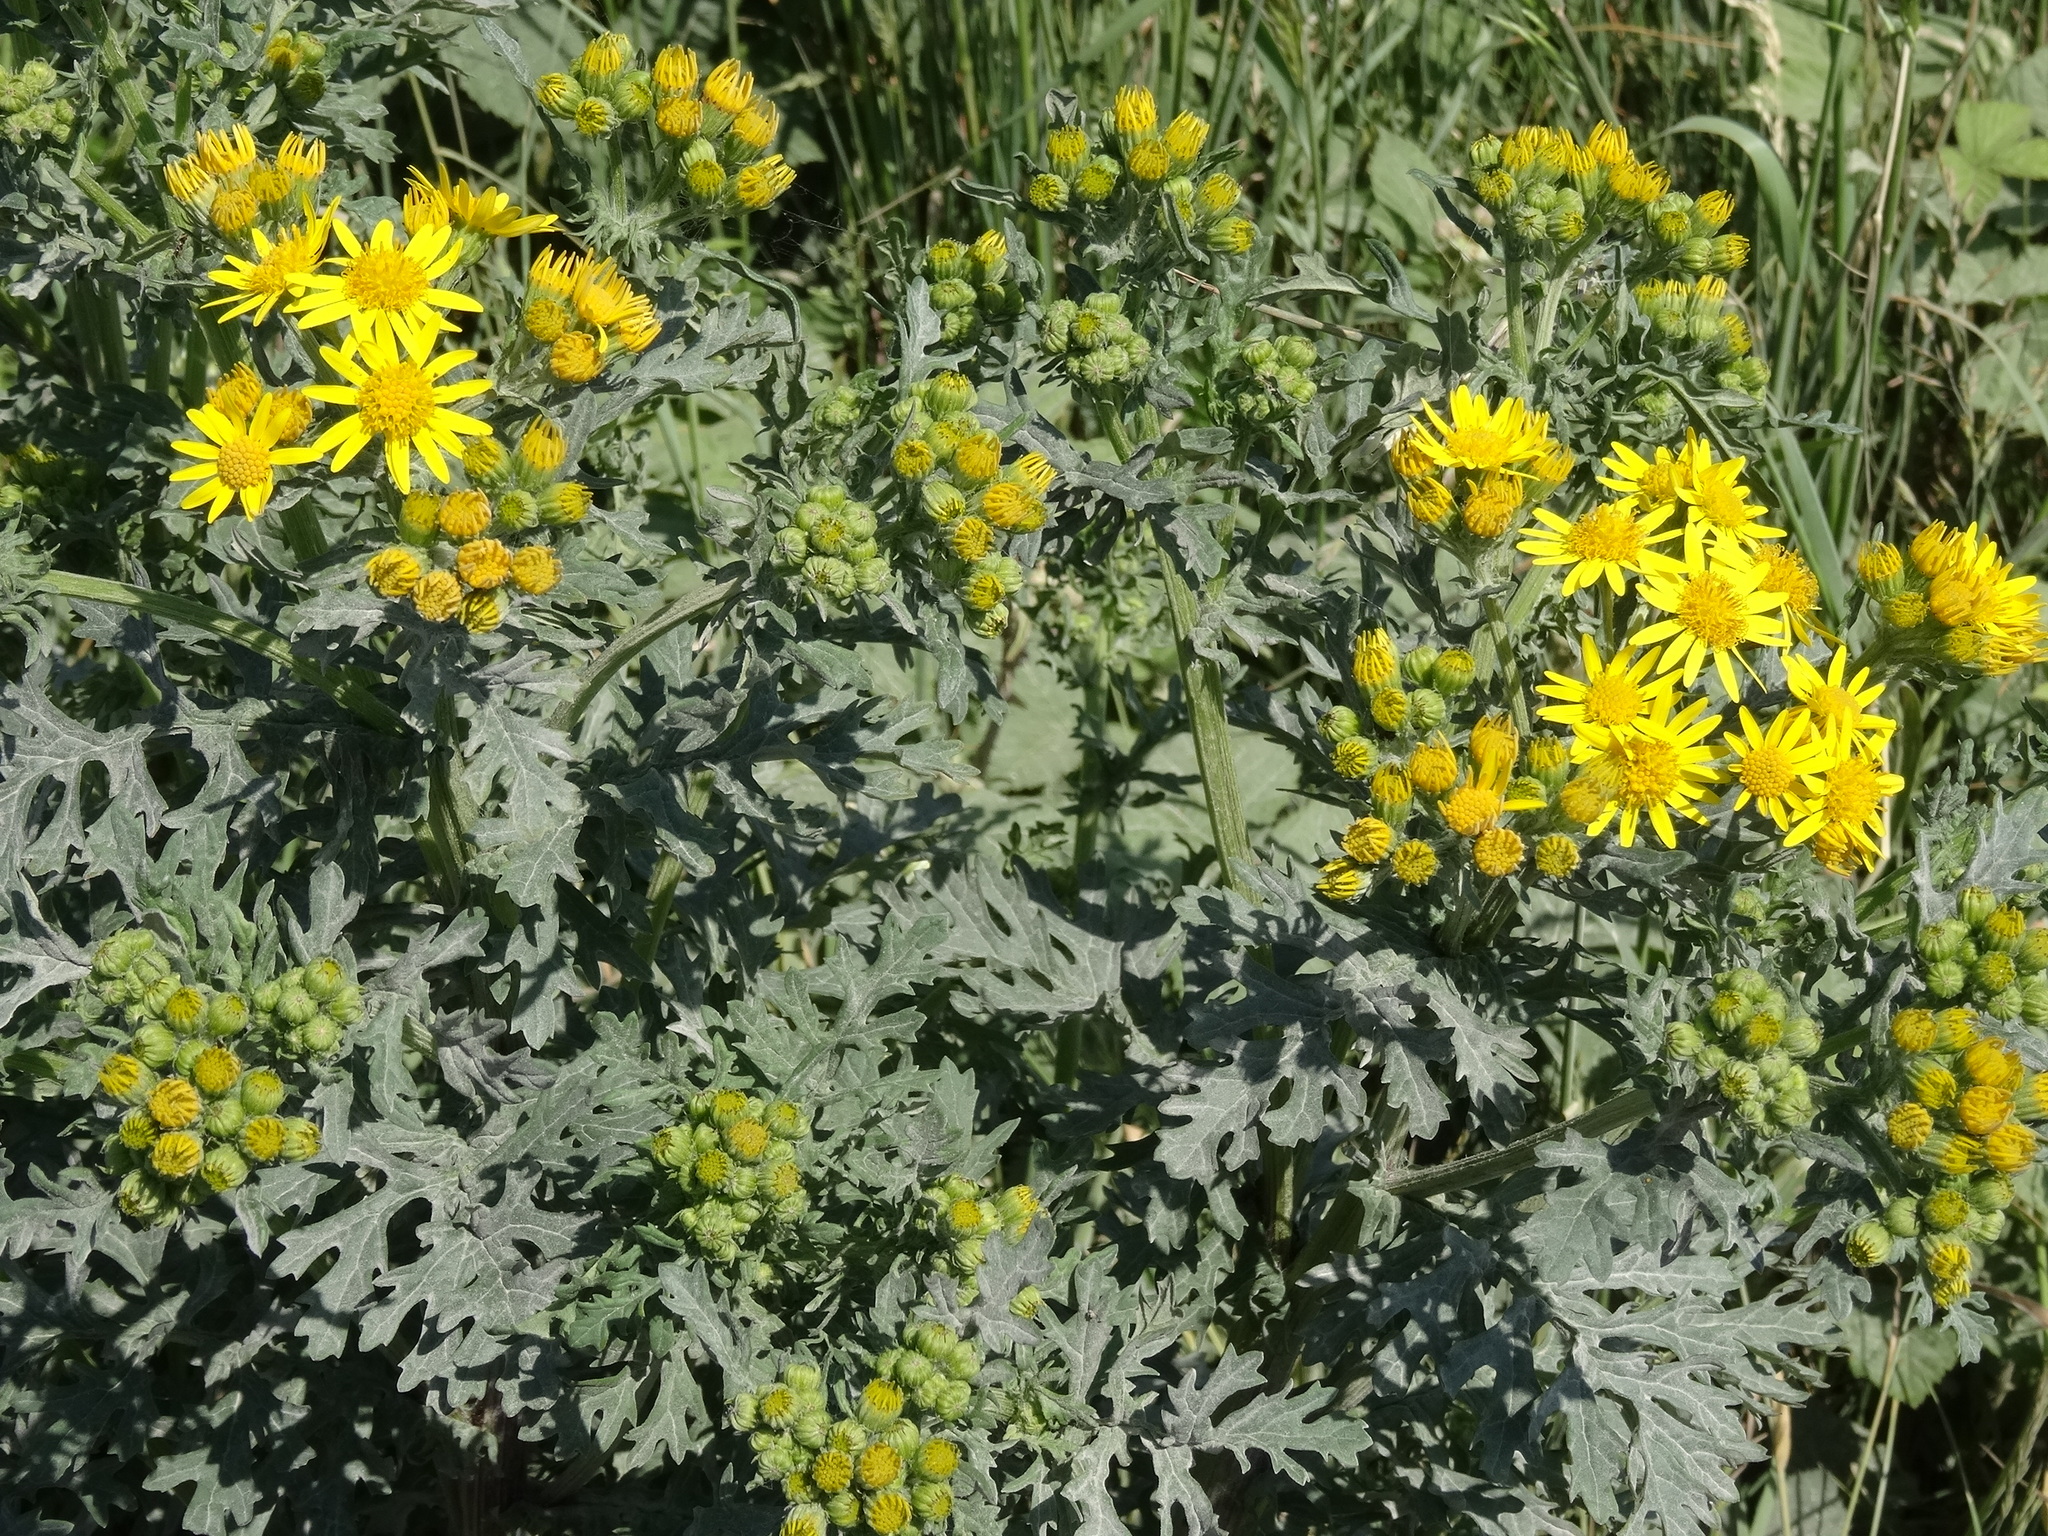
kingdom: Plantae
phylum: Tracheophyta
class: Magnoliopsida
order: Asterales
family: Asteraceae
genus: Jacobaea
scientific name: Jacobaea vulgaris
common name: Stinking willie
